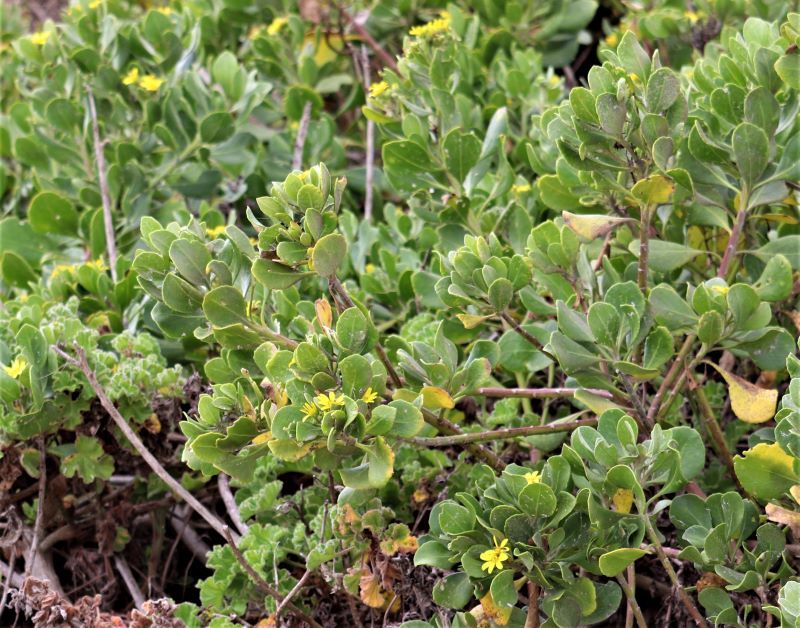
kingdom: Plantae
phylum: Tracheophyta
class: Magnoliopsida
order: Asterales
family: Asteraceae
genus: Osteospermum
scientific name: Osteospermum moniliferum
